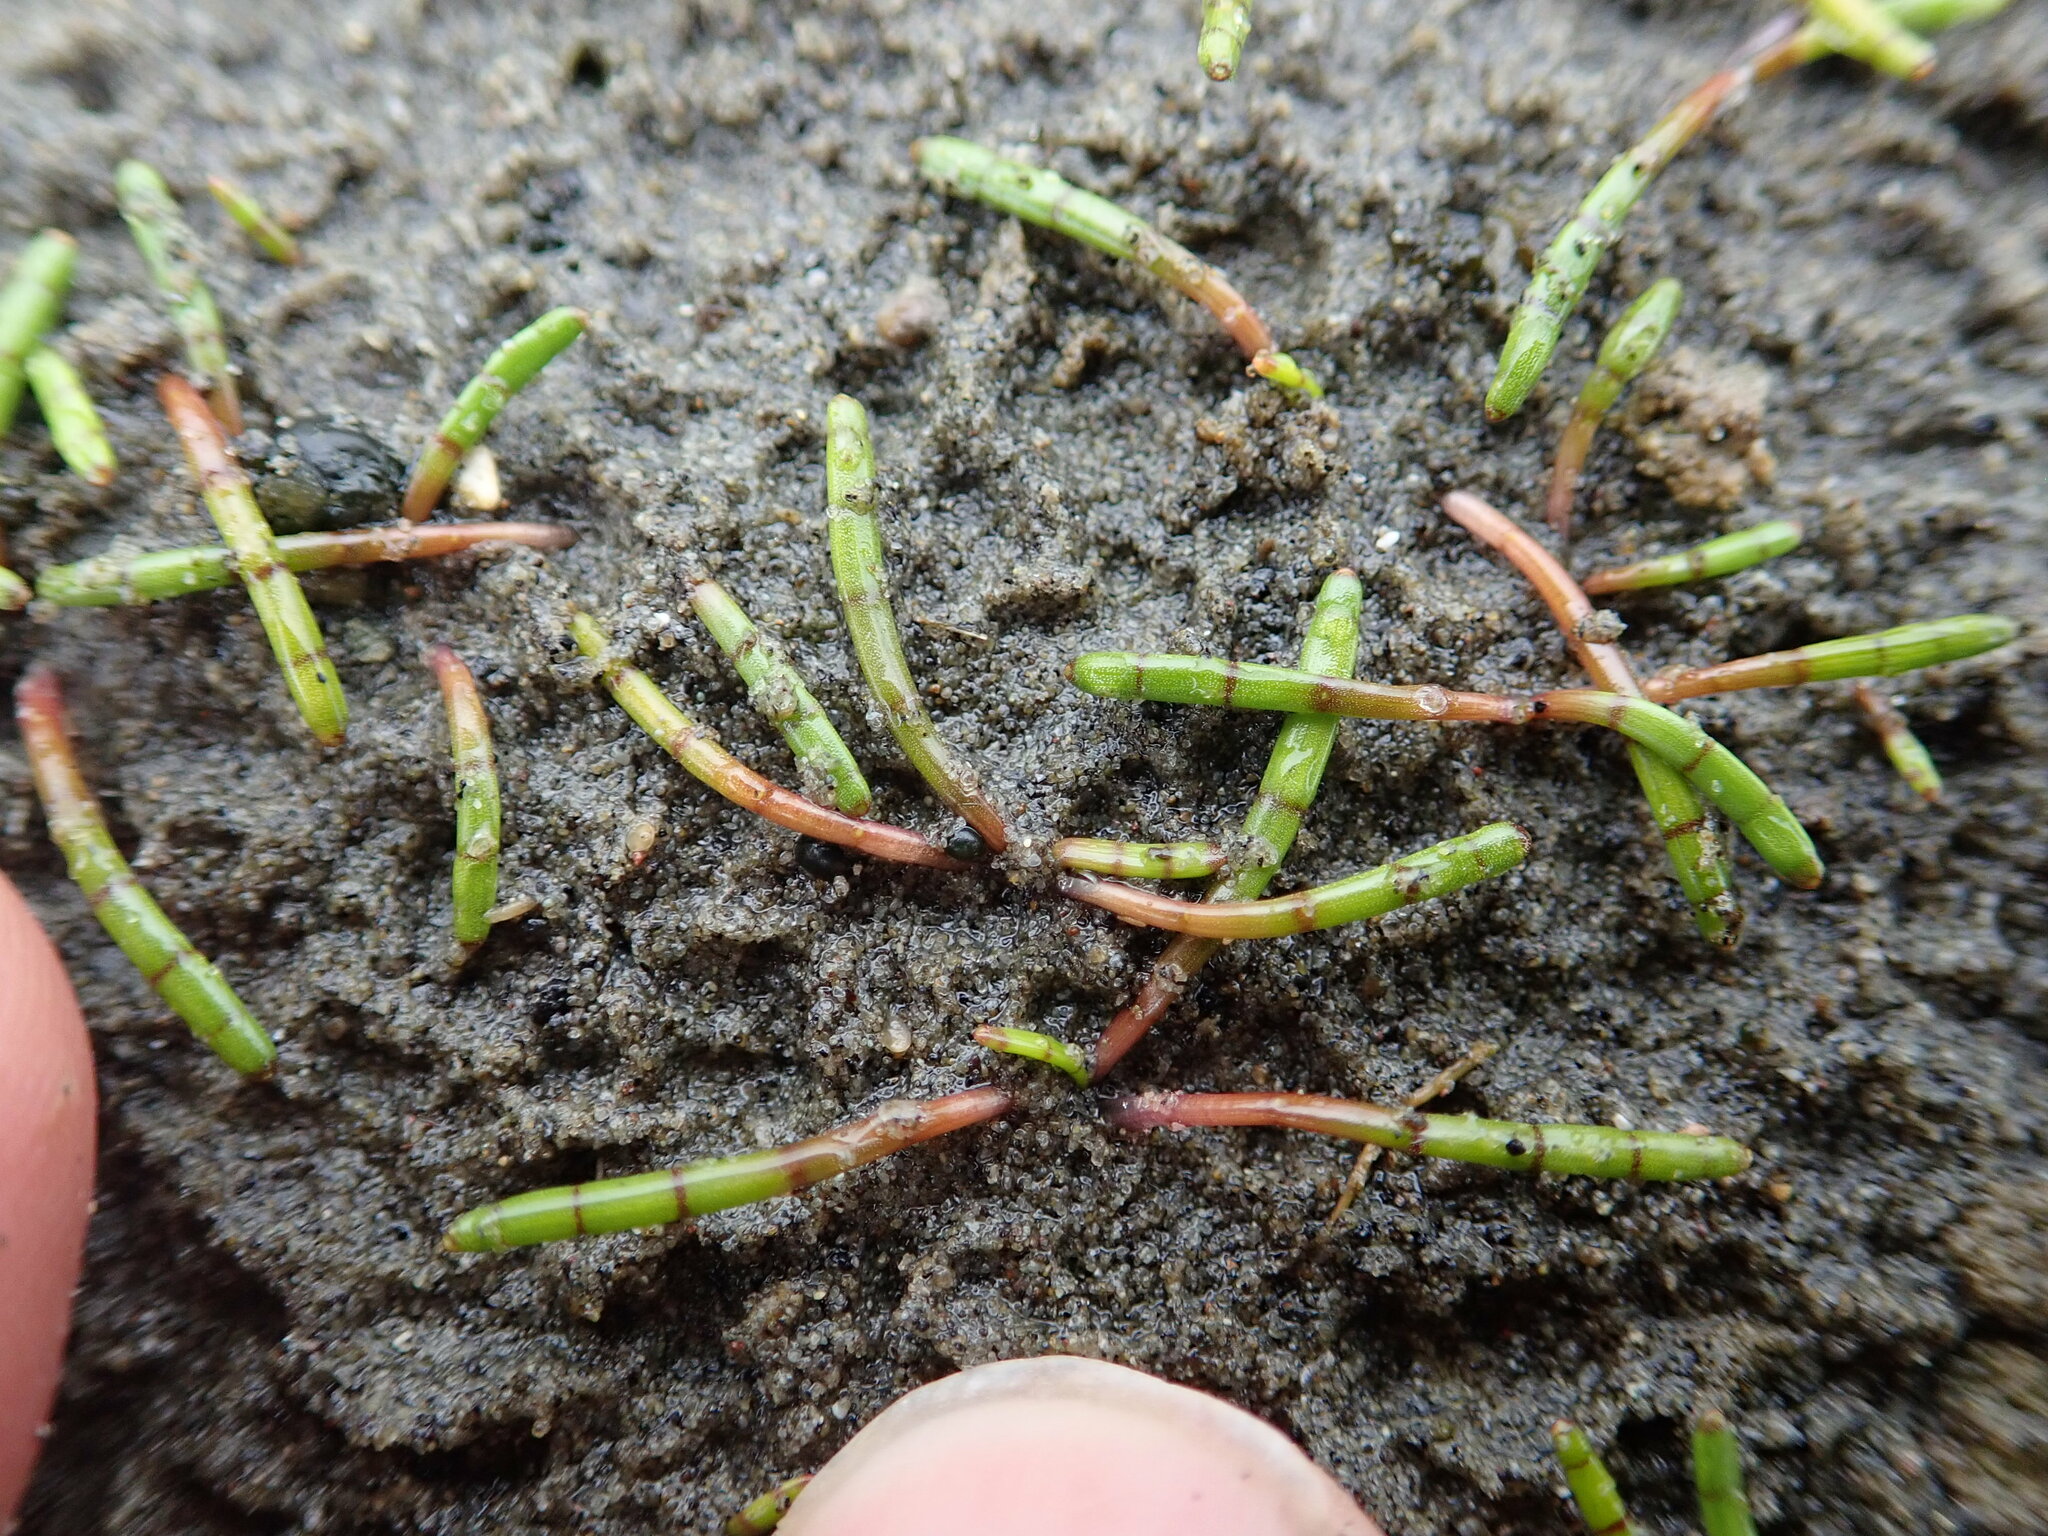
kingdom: Plantae
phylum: Tracheophyta
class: Magnoliopsida
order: Apiales
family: Apiaceae
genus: Lilaeopsis
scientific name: Lilaeopsis novae-zelandiae
